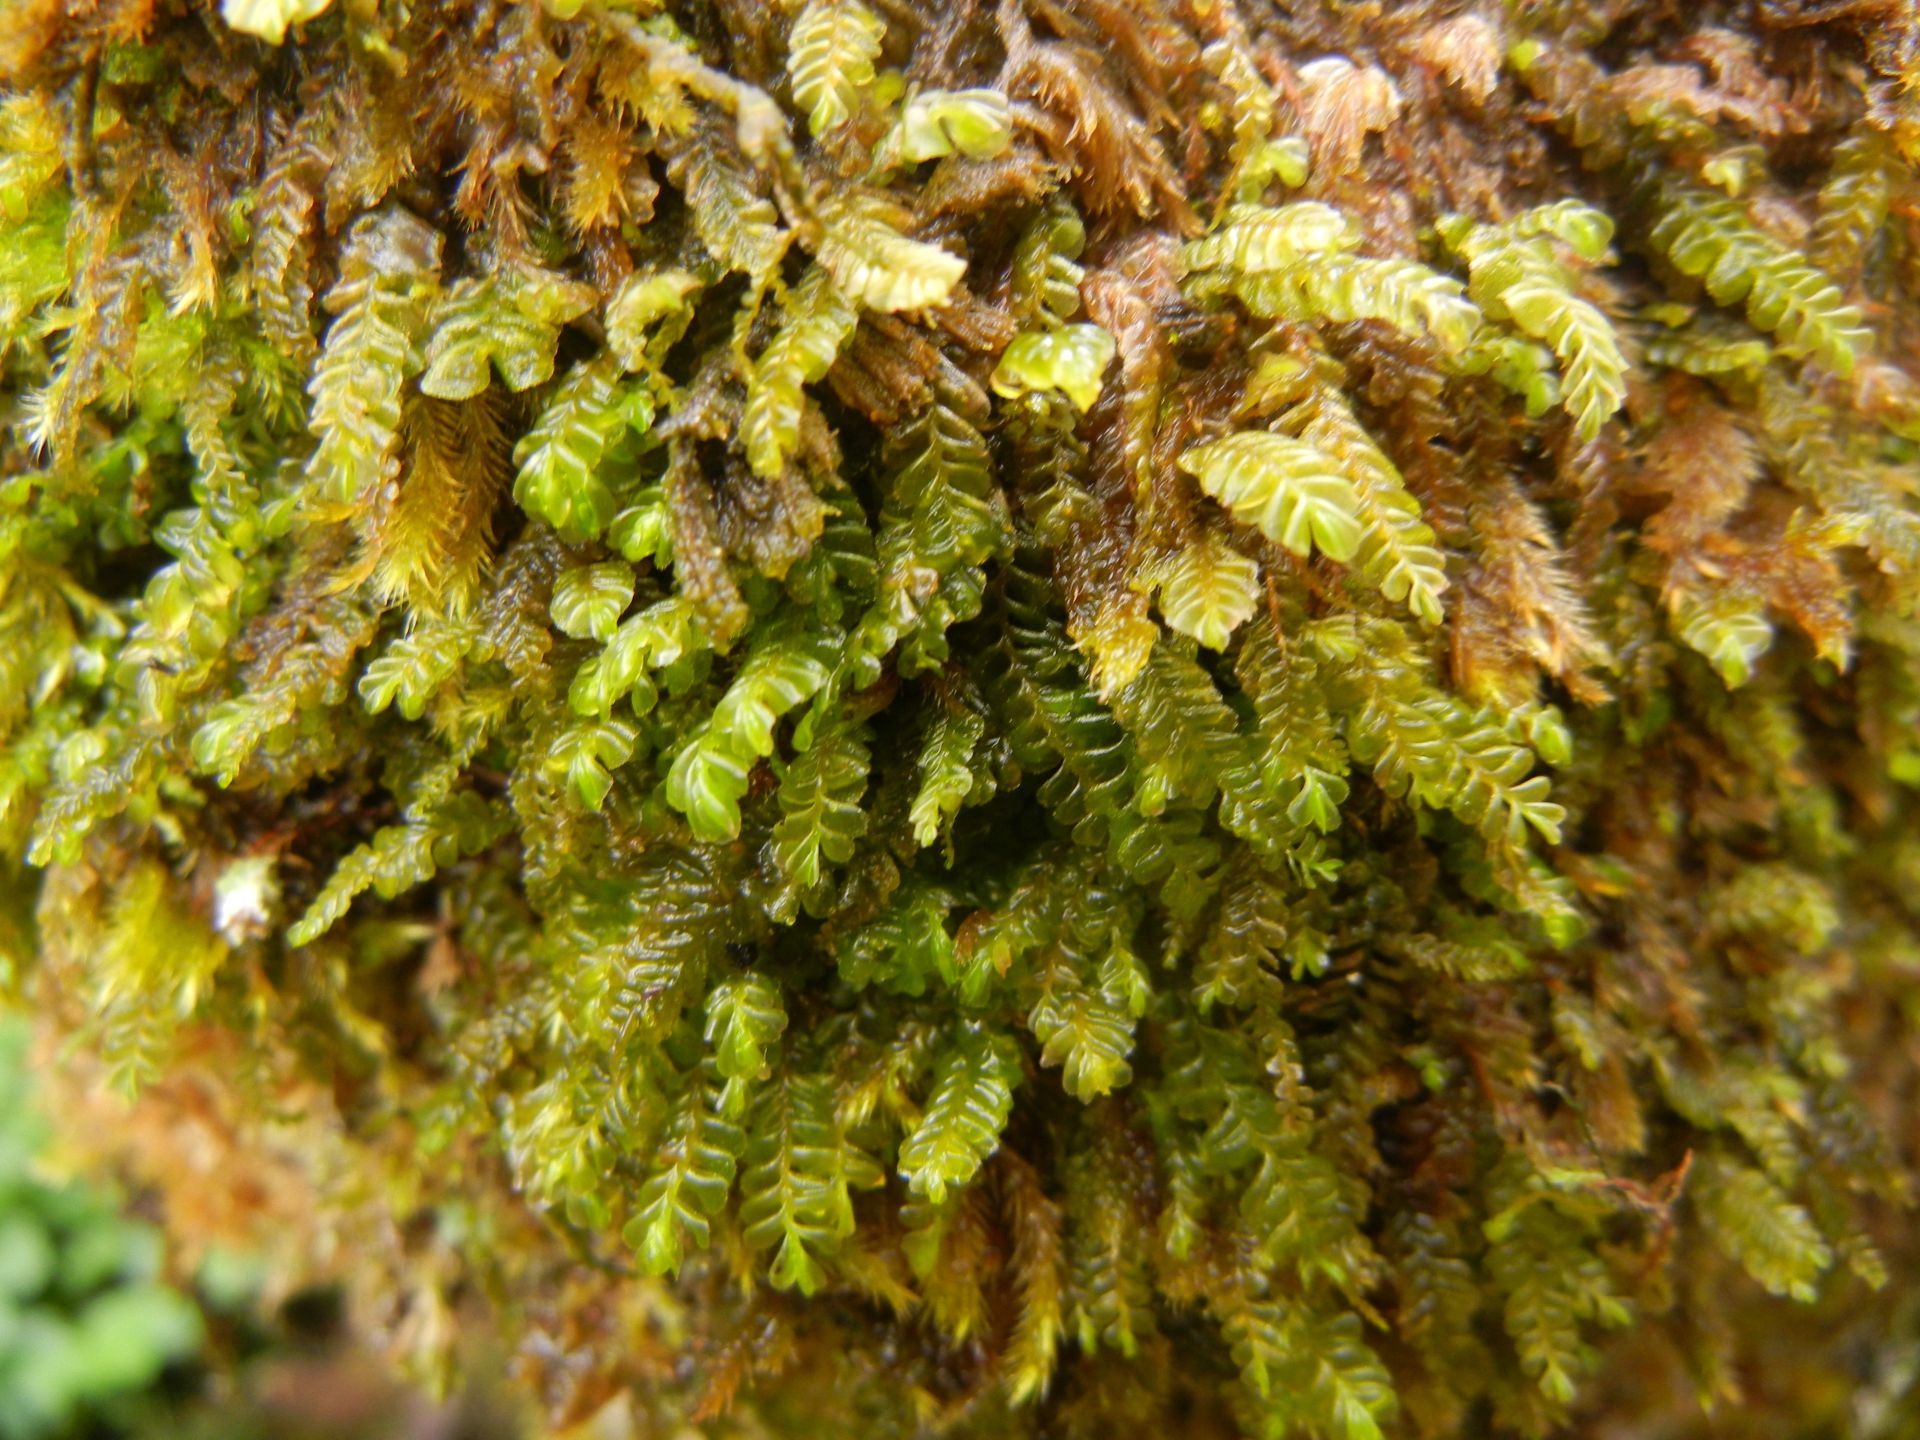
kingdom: Plantae
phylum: Marchantiophyta
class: Jungermanniopsida
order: Jungermanniales
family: Plagiochilaceae
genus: Plagiochila
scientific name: Plagiochila porelloides
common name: Lesser featherwort
